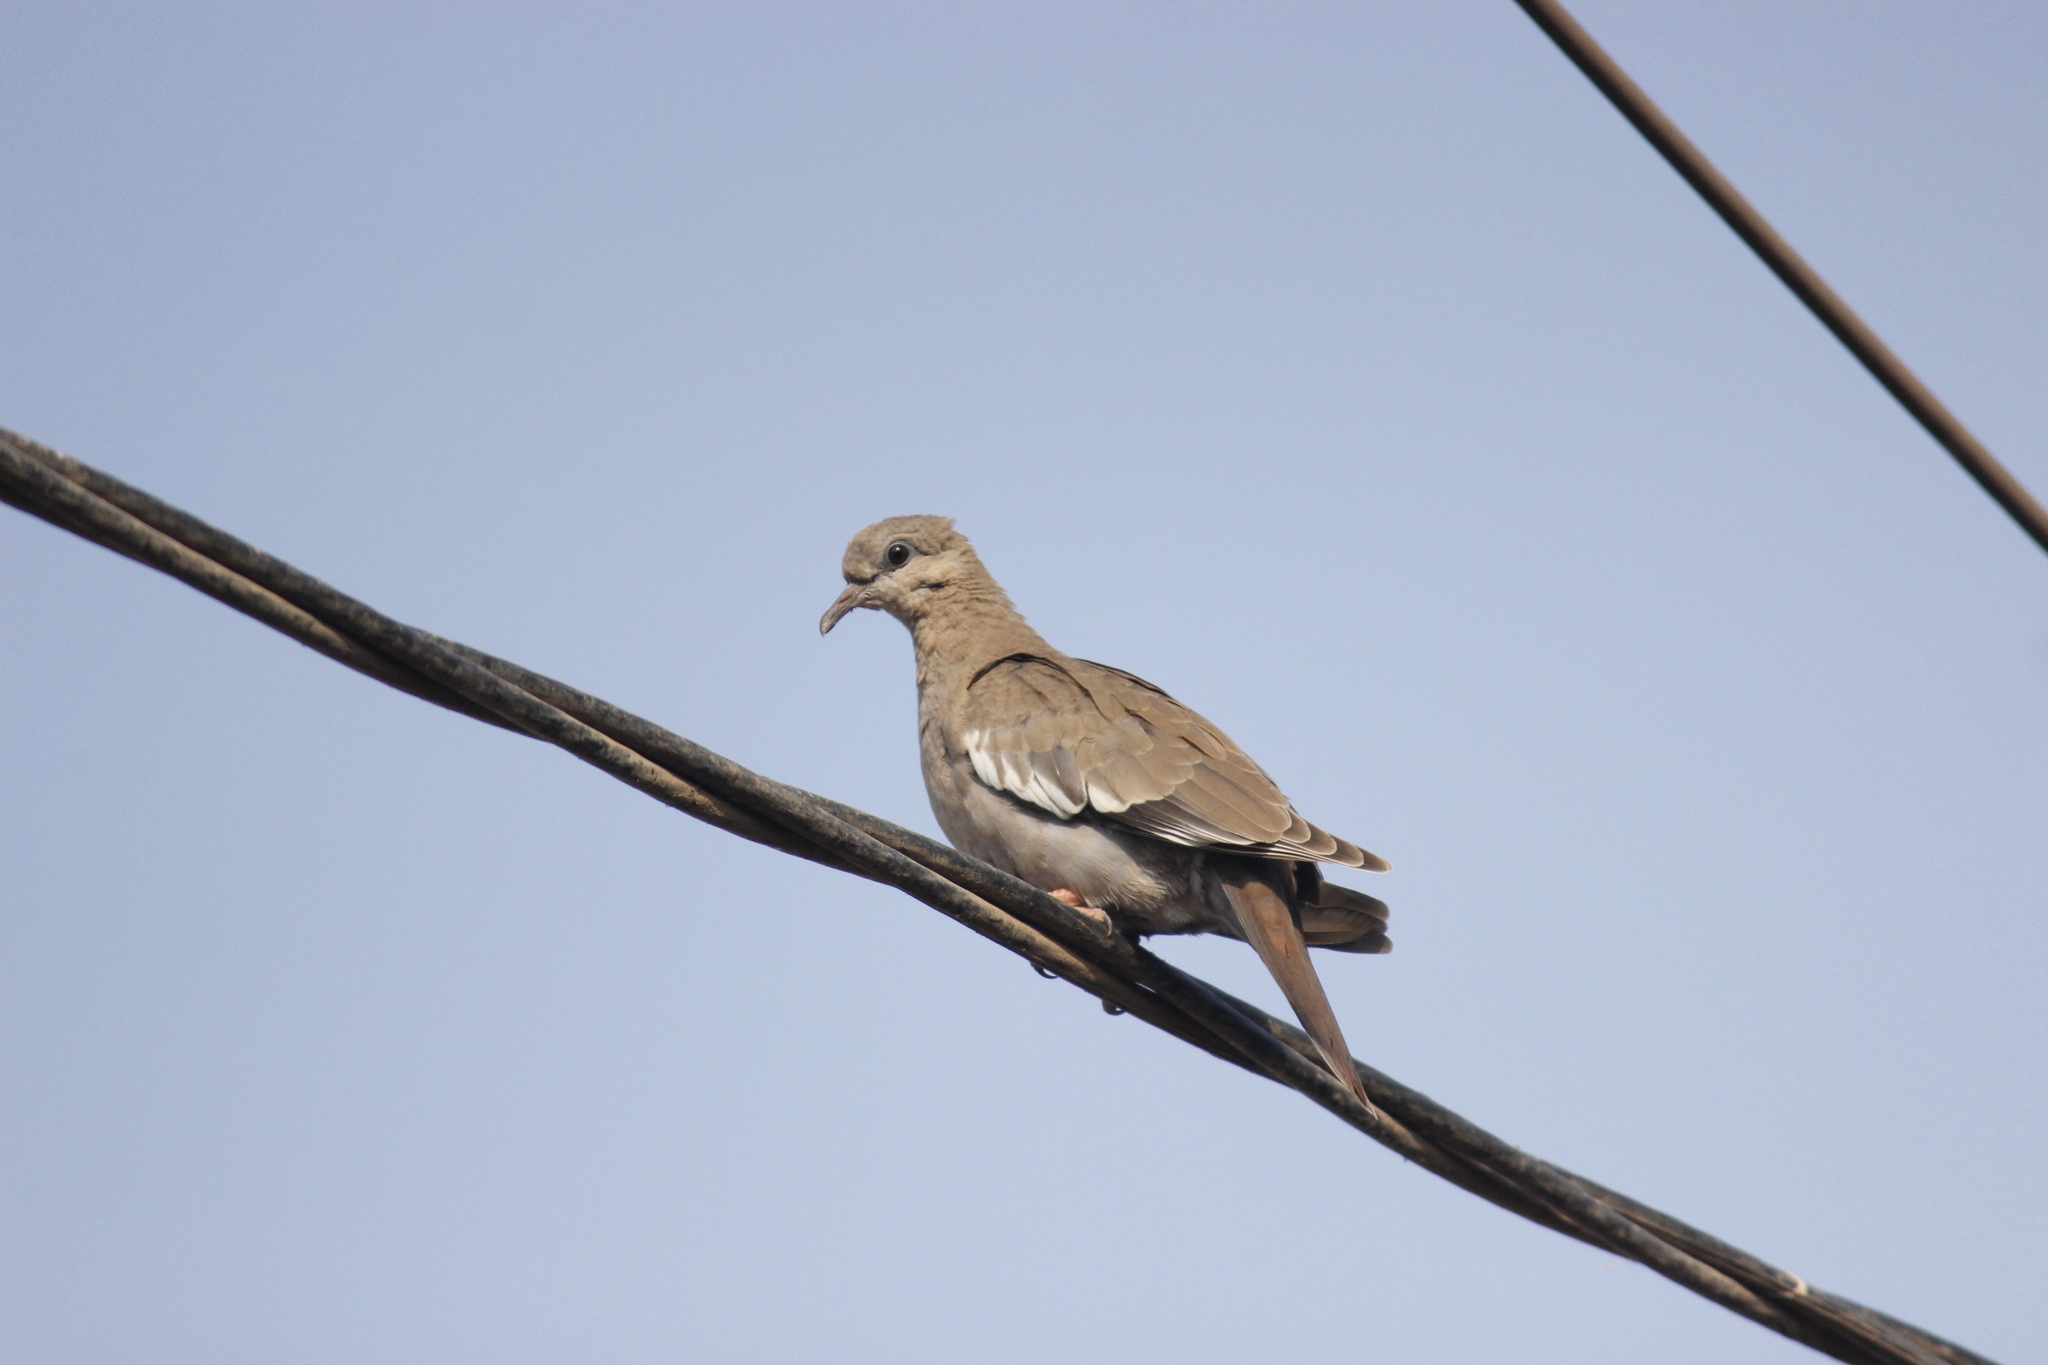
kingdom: Animalia
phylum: Chordata
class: Aves
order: Columbiformes
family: Columbidae
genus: Zenaida
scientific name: Zenaida meloda
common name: West peruvian dove
